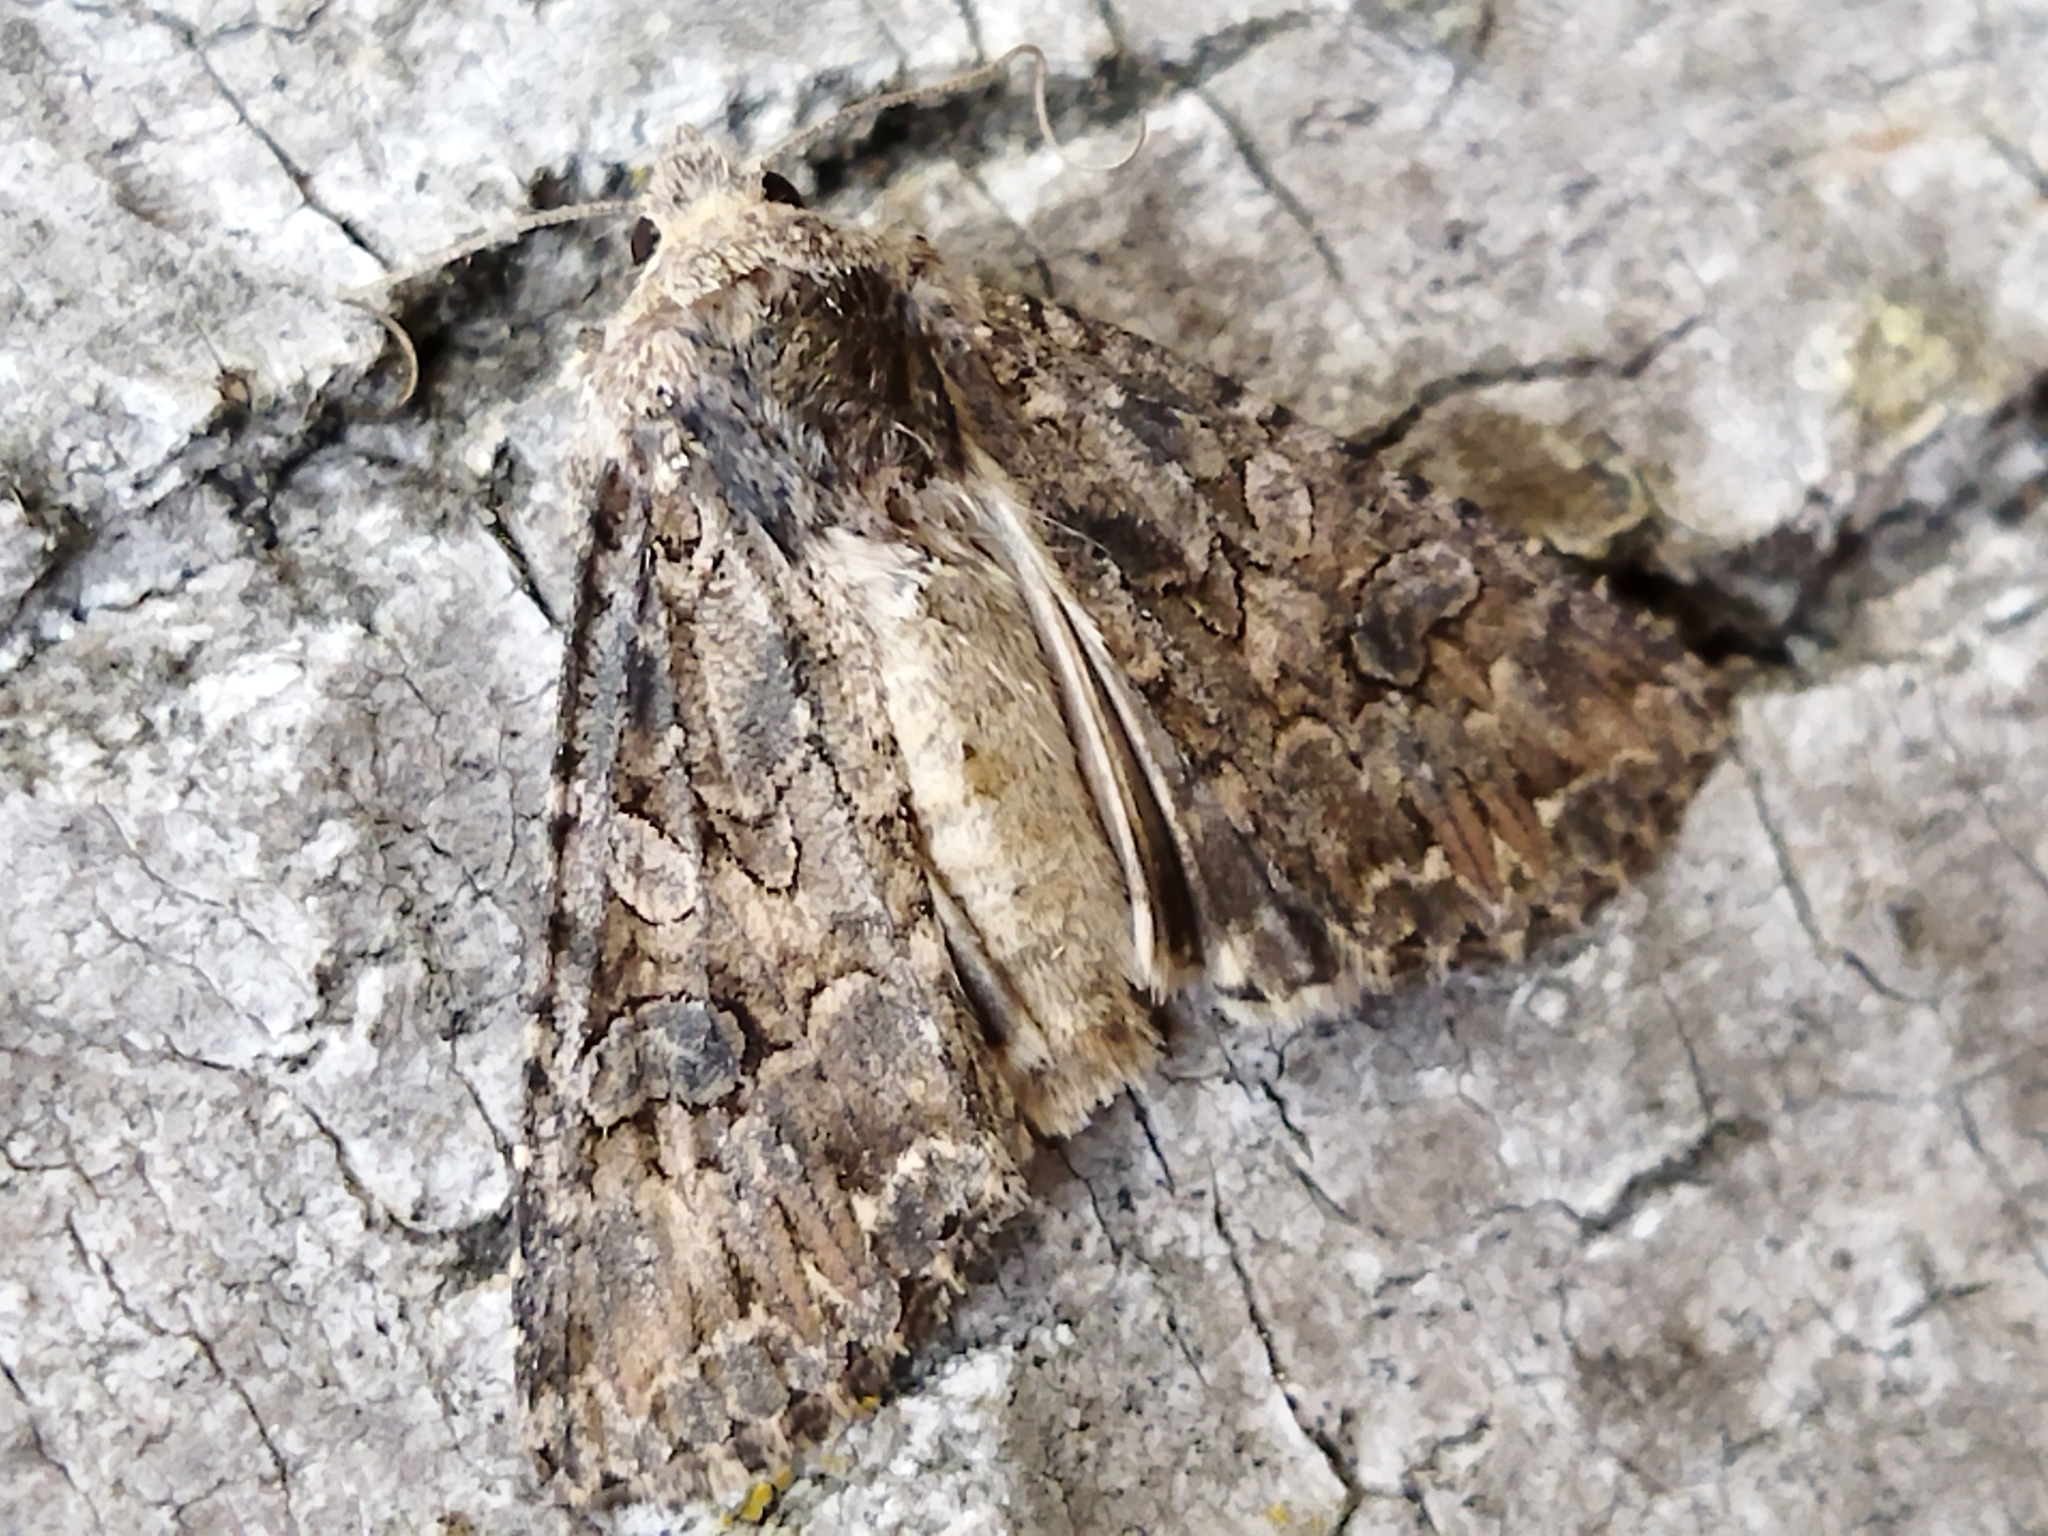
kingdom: Animalia
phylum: Arthropoda
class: Insecta
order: Lepidoptera
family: Noctuidae
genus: Anarta
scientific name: Anarta trifolii
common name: Clover cutworm moth
